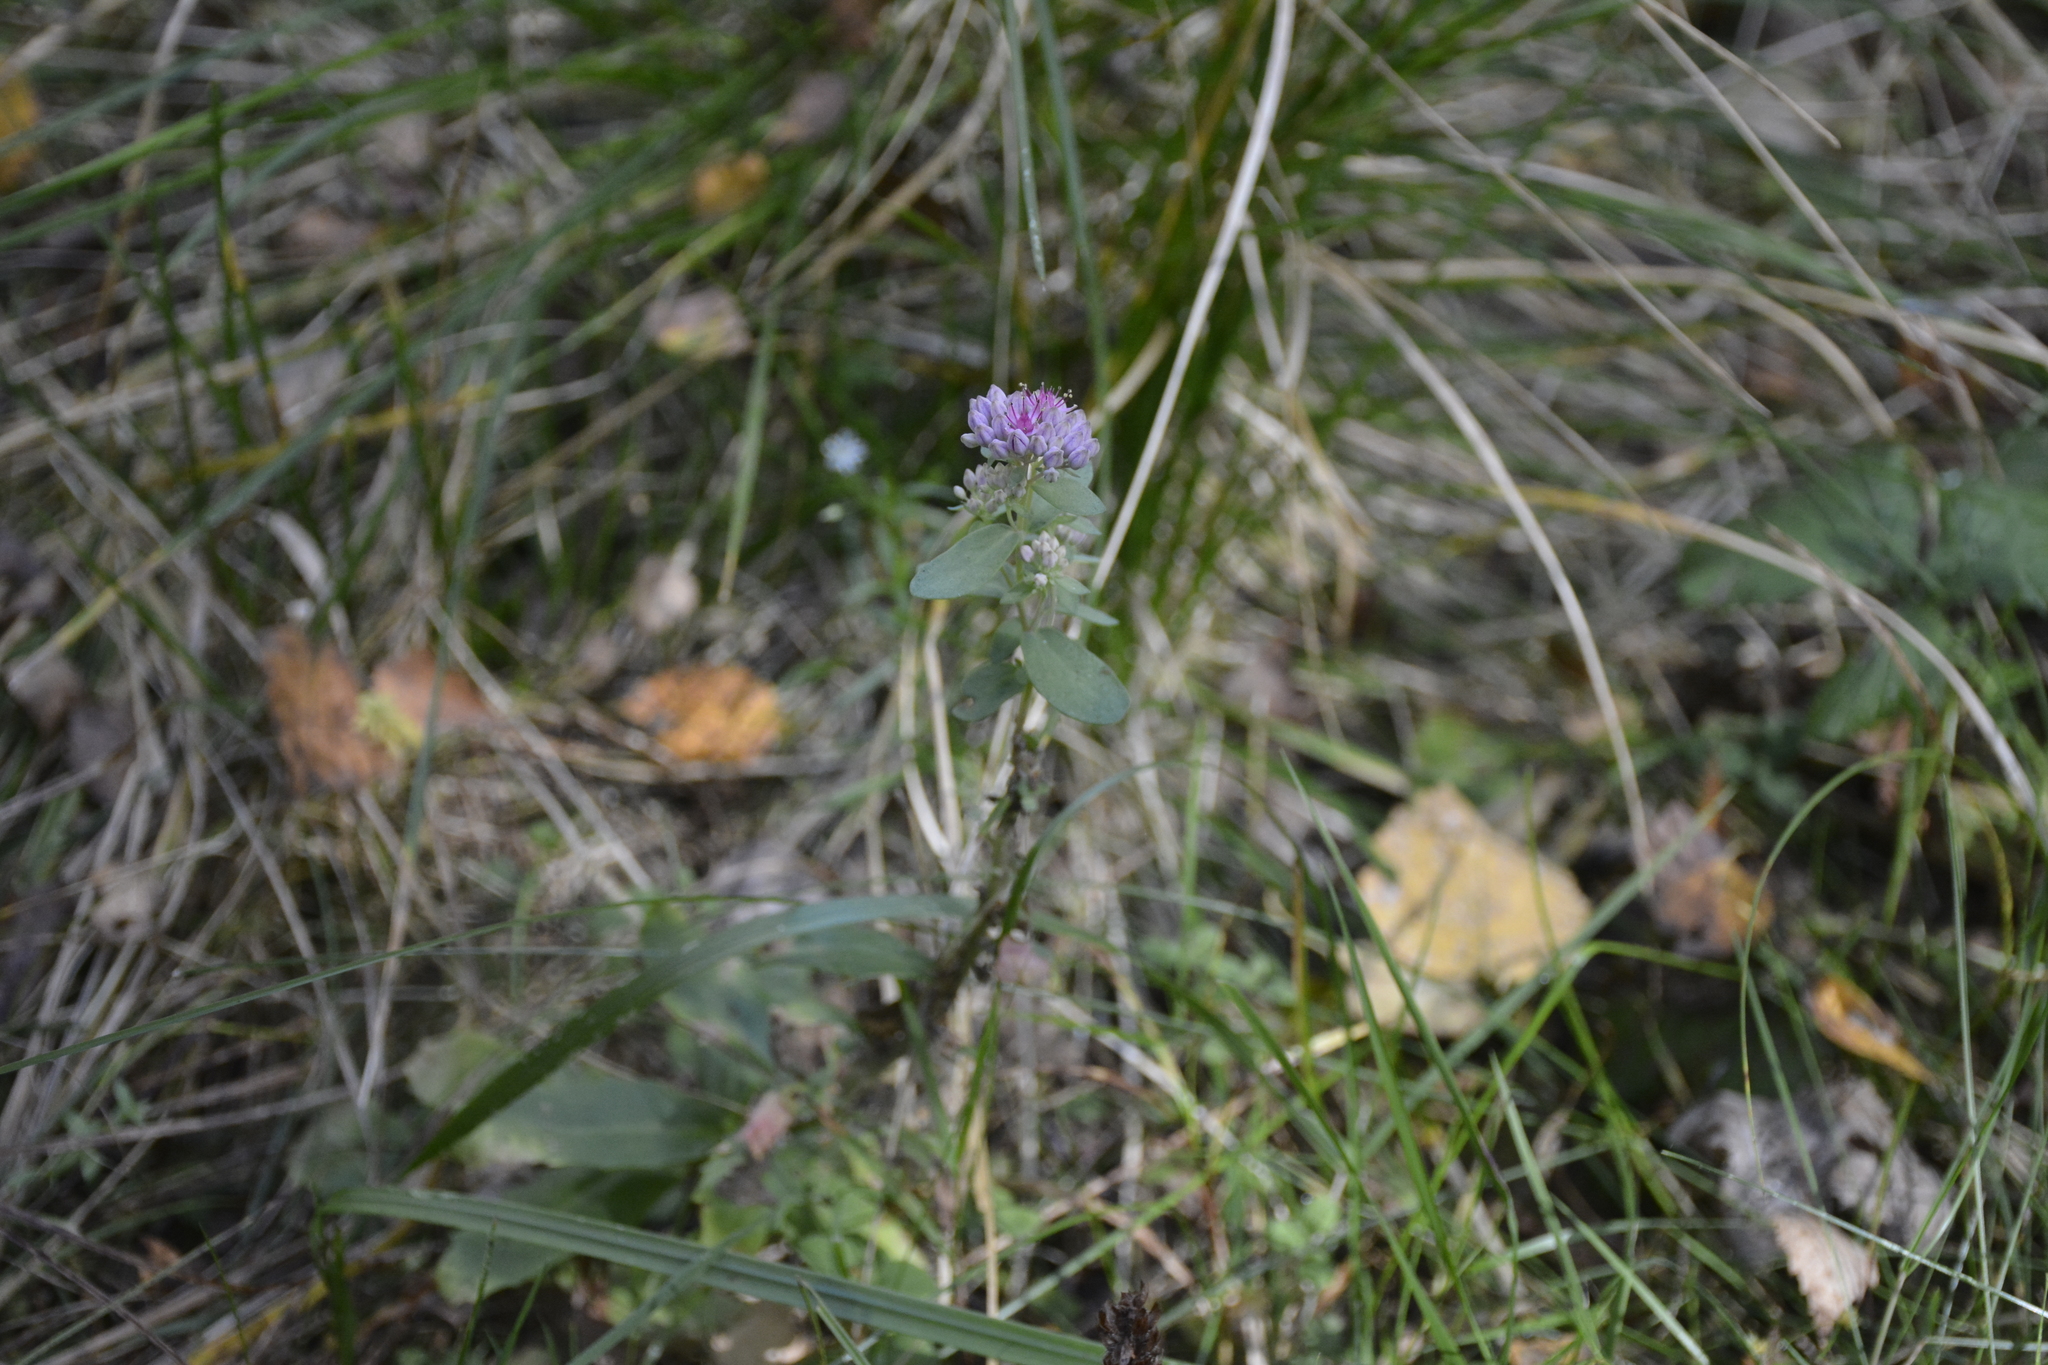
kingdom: Plantae
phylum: Tracheophyta
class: Magnoliopsida
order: Saxifragales
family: Crassulaceae
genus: Hylotelephium
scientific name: Hylotelephium telephium
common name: Live-forever
